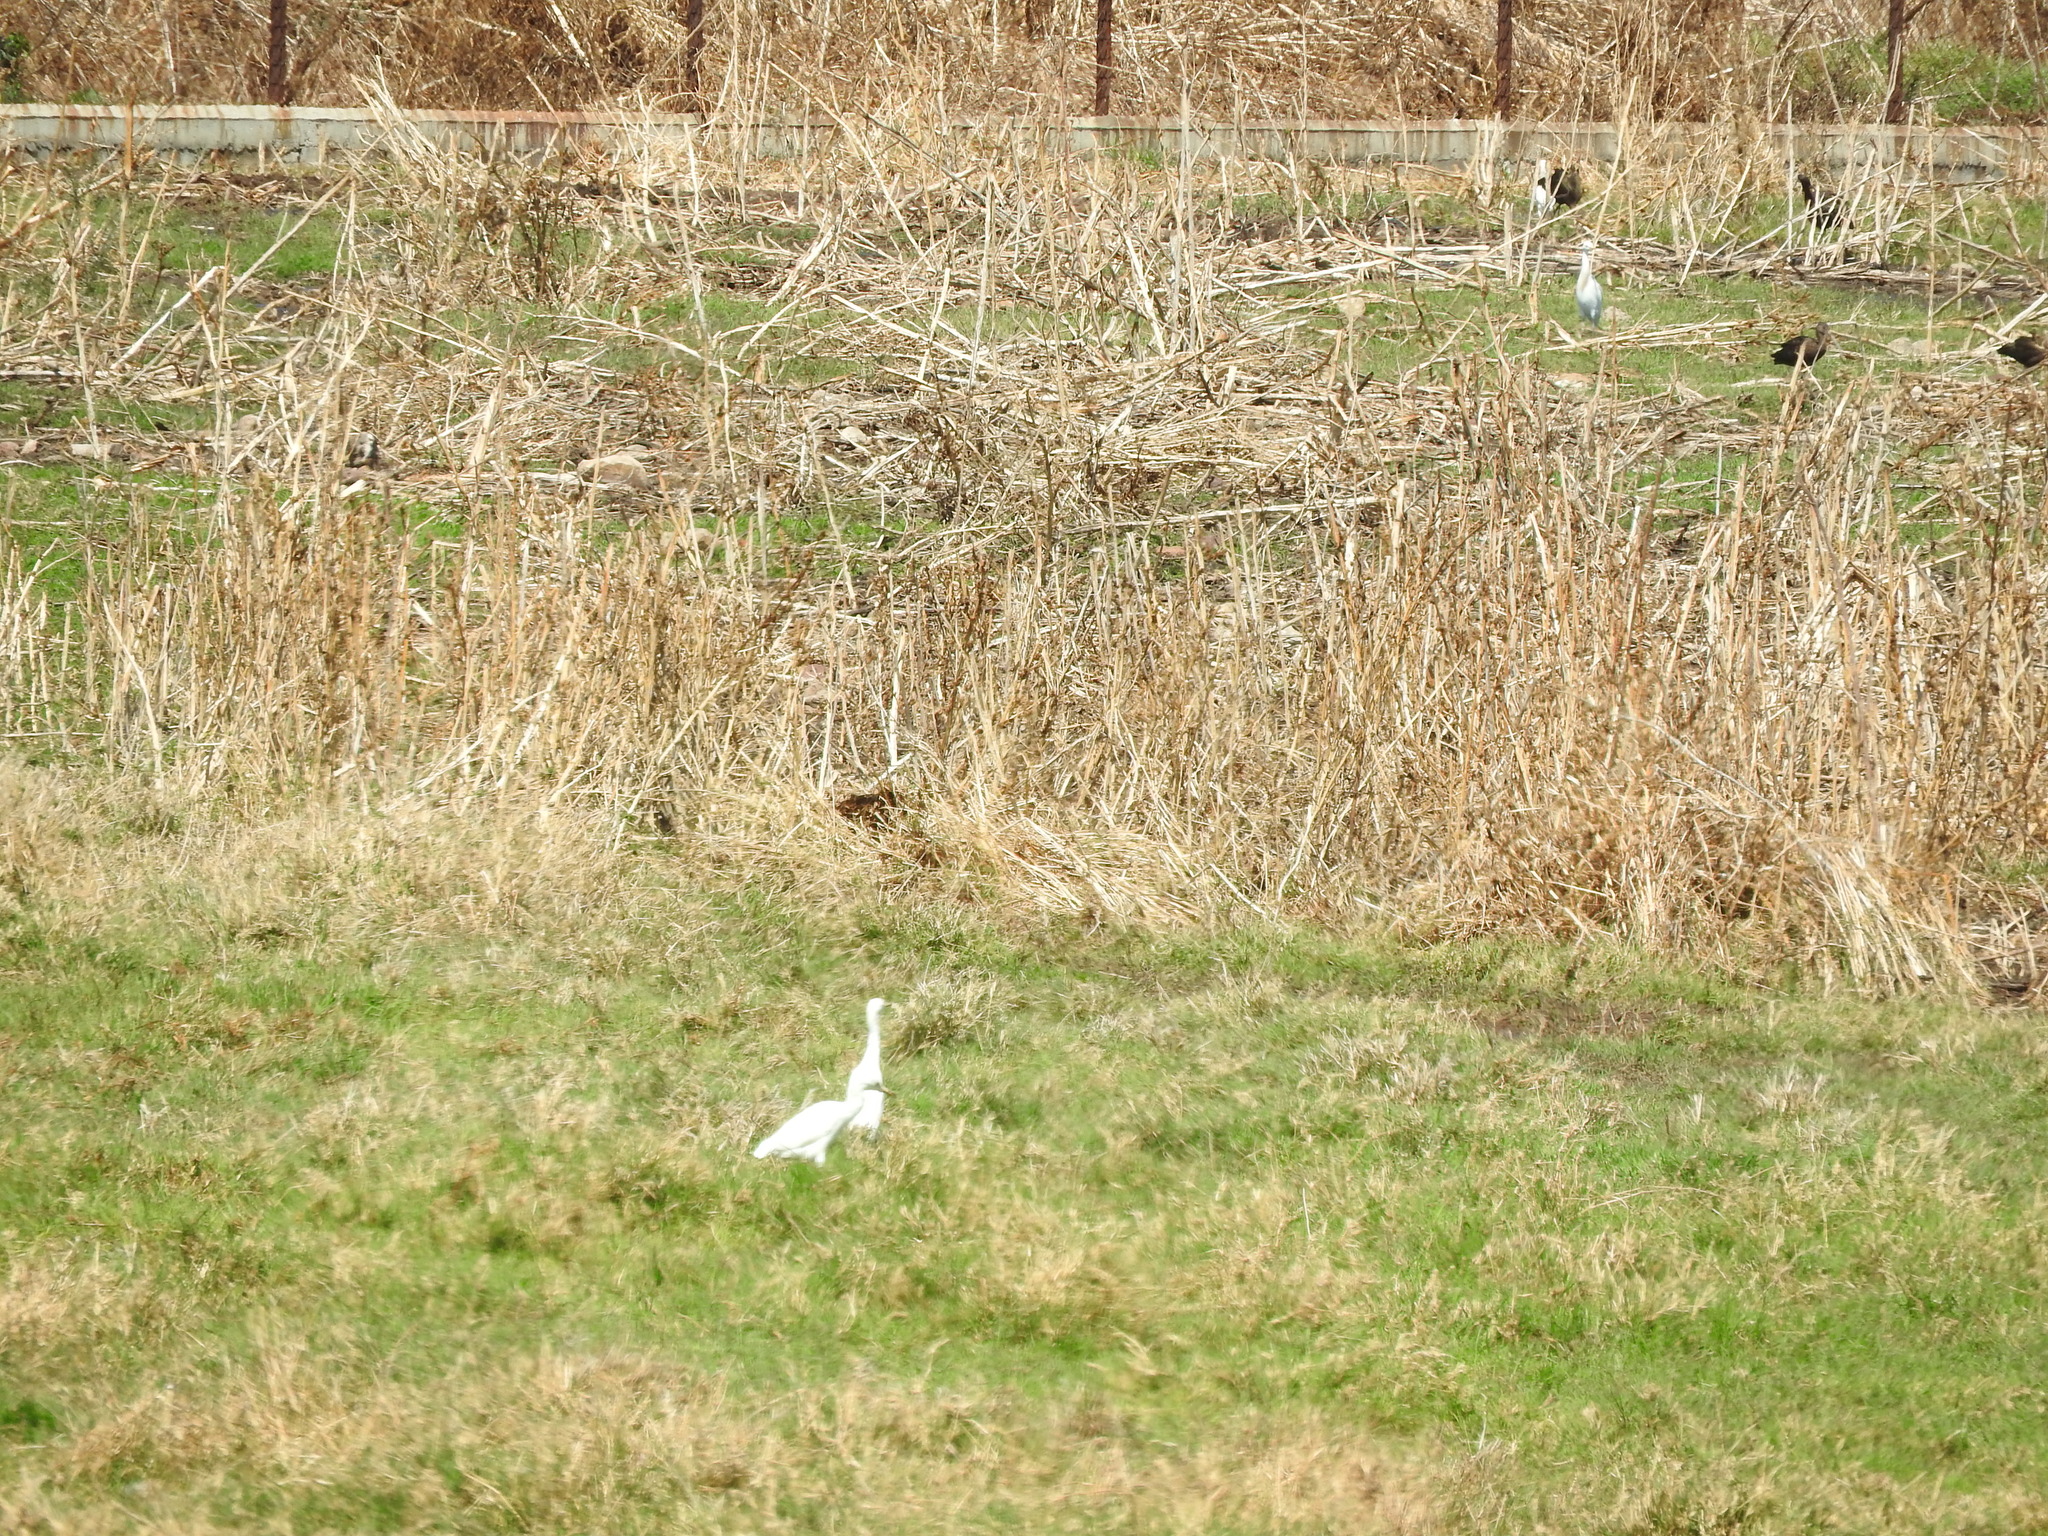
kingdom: Animalia
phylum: Chordata
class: Aves
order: Pelecaniformes
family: Ardeidae
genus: Bubulcus
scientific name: Bubulcus ibis
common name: Cattle egret
